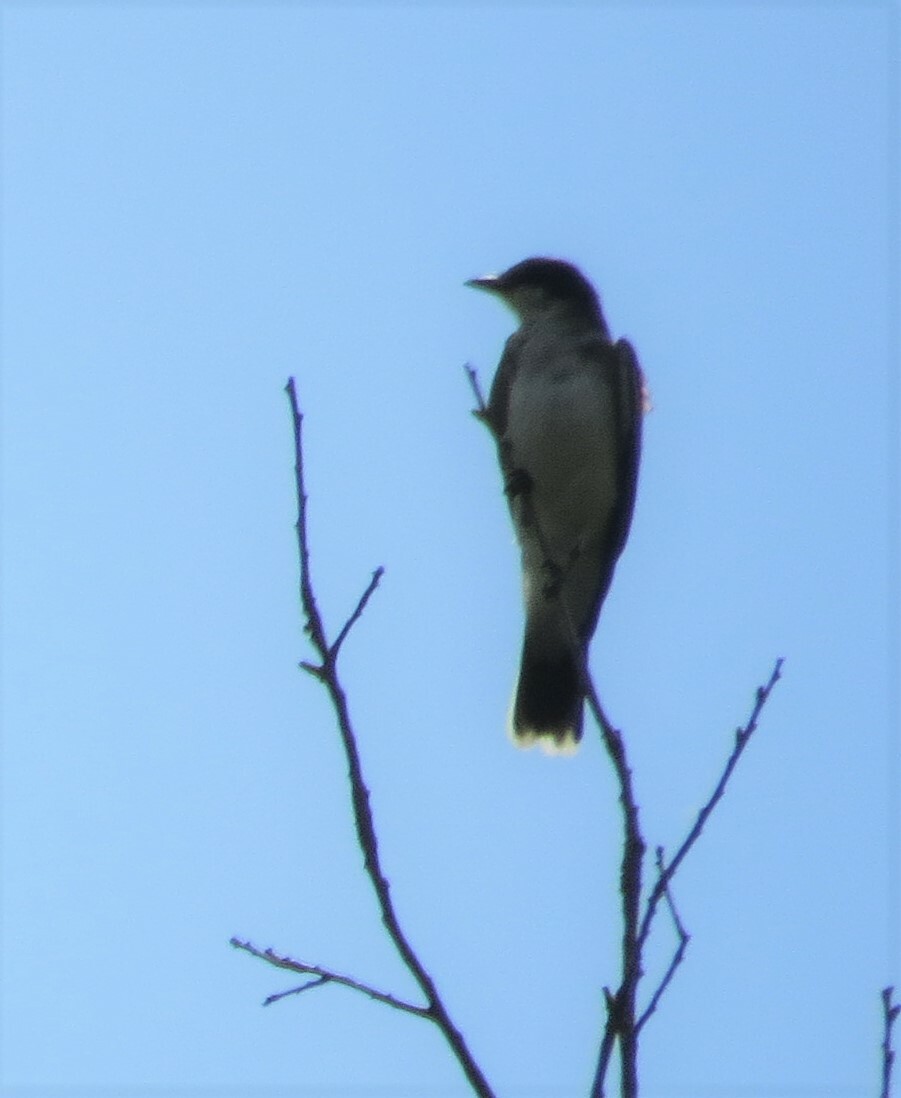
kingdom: Animalia
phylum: Chordata
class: Aves
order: Passeriformes
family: Tyrannidae
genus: Tyrannus
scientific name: Tyrannus tyrannus
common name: Eastern kingbird
